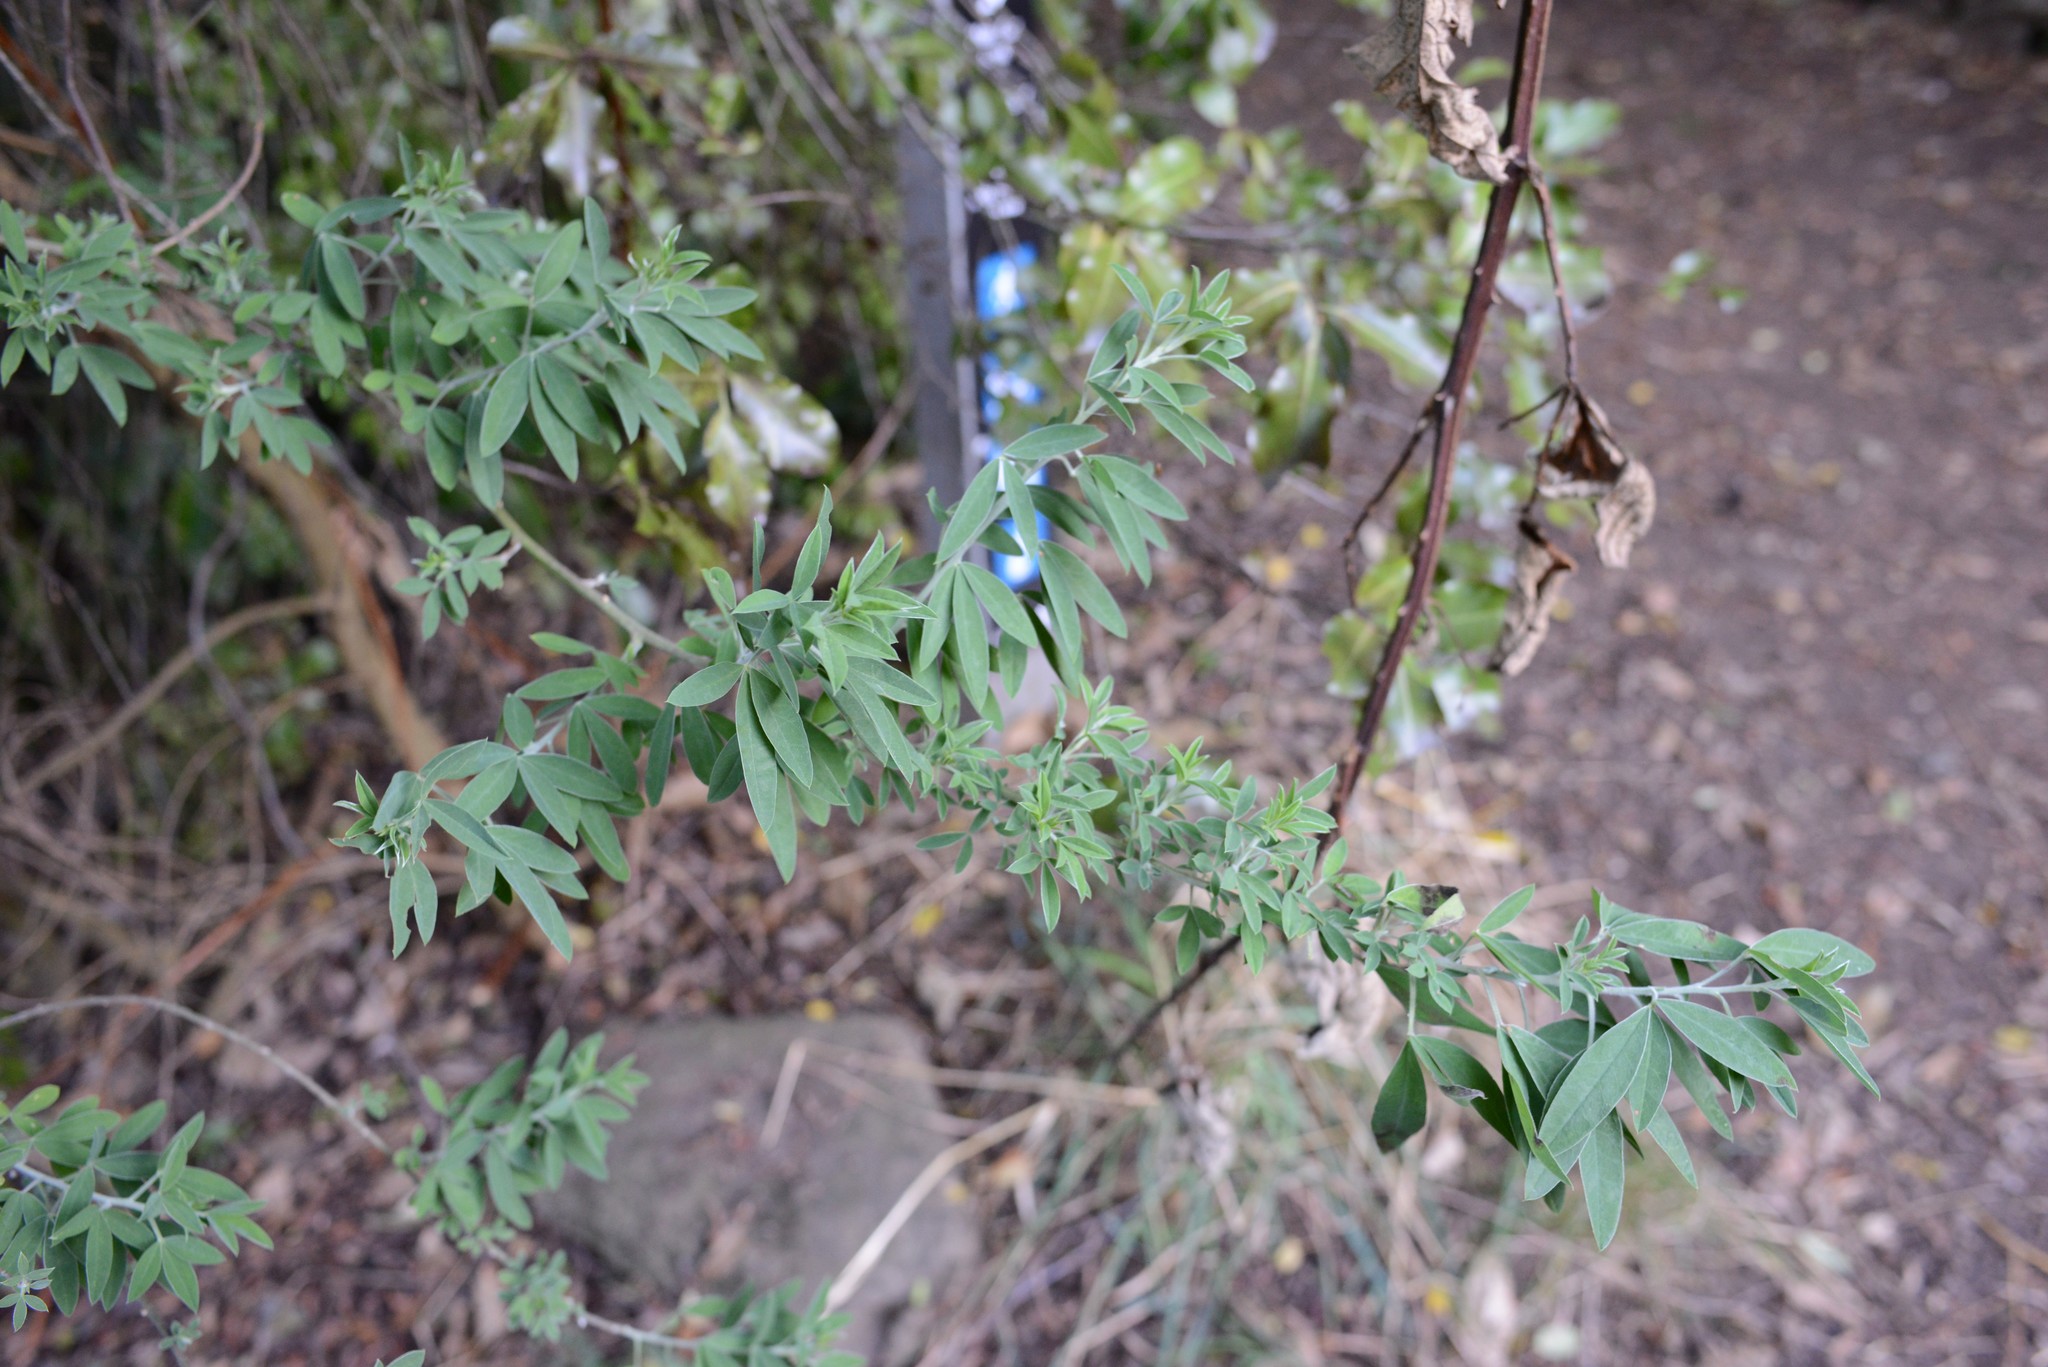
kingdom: Plantae
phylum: Tracheophyta
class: Magnoliopsida
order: Fabales
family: Fabaceae
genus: Chamaecytisus
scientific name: Chamaecytisus prolifer
